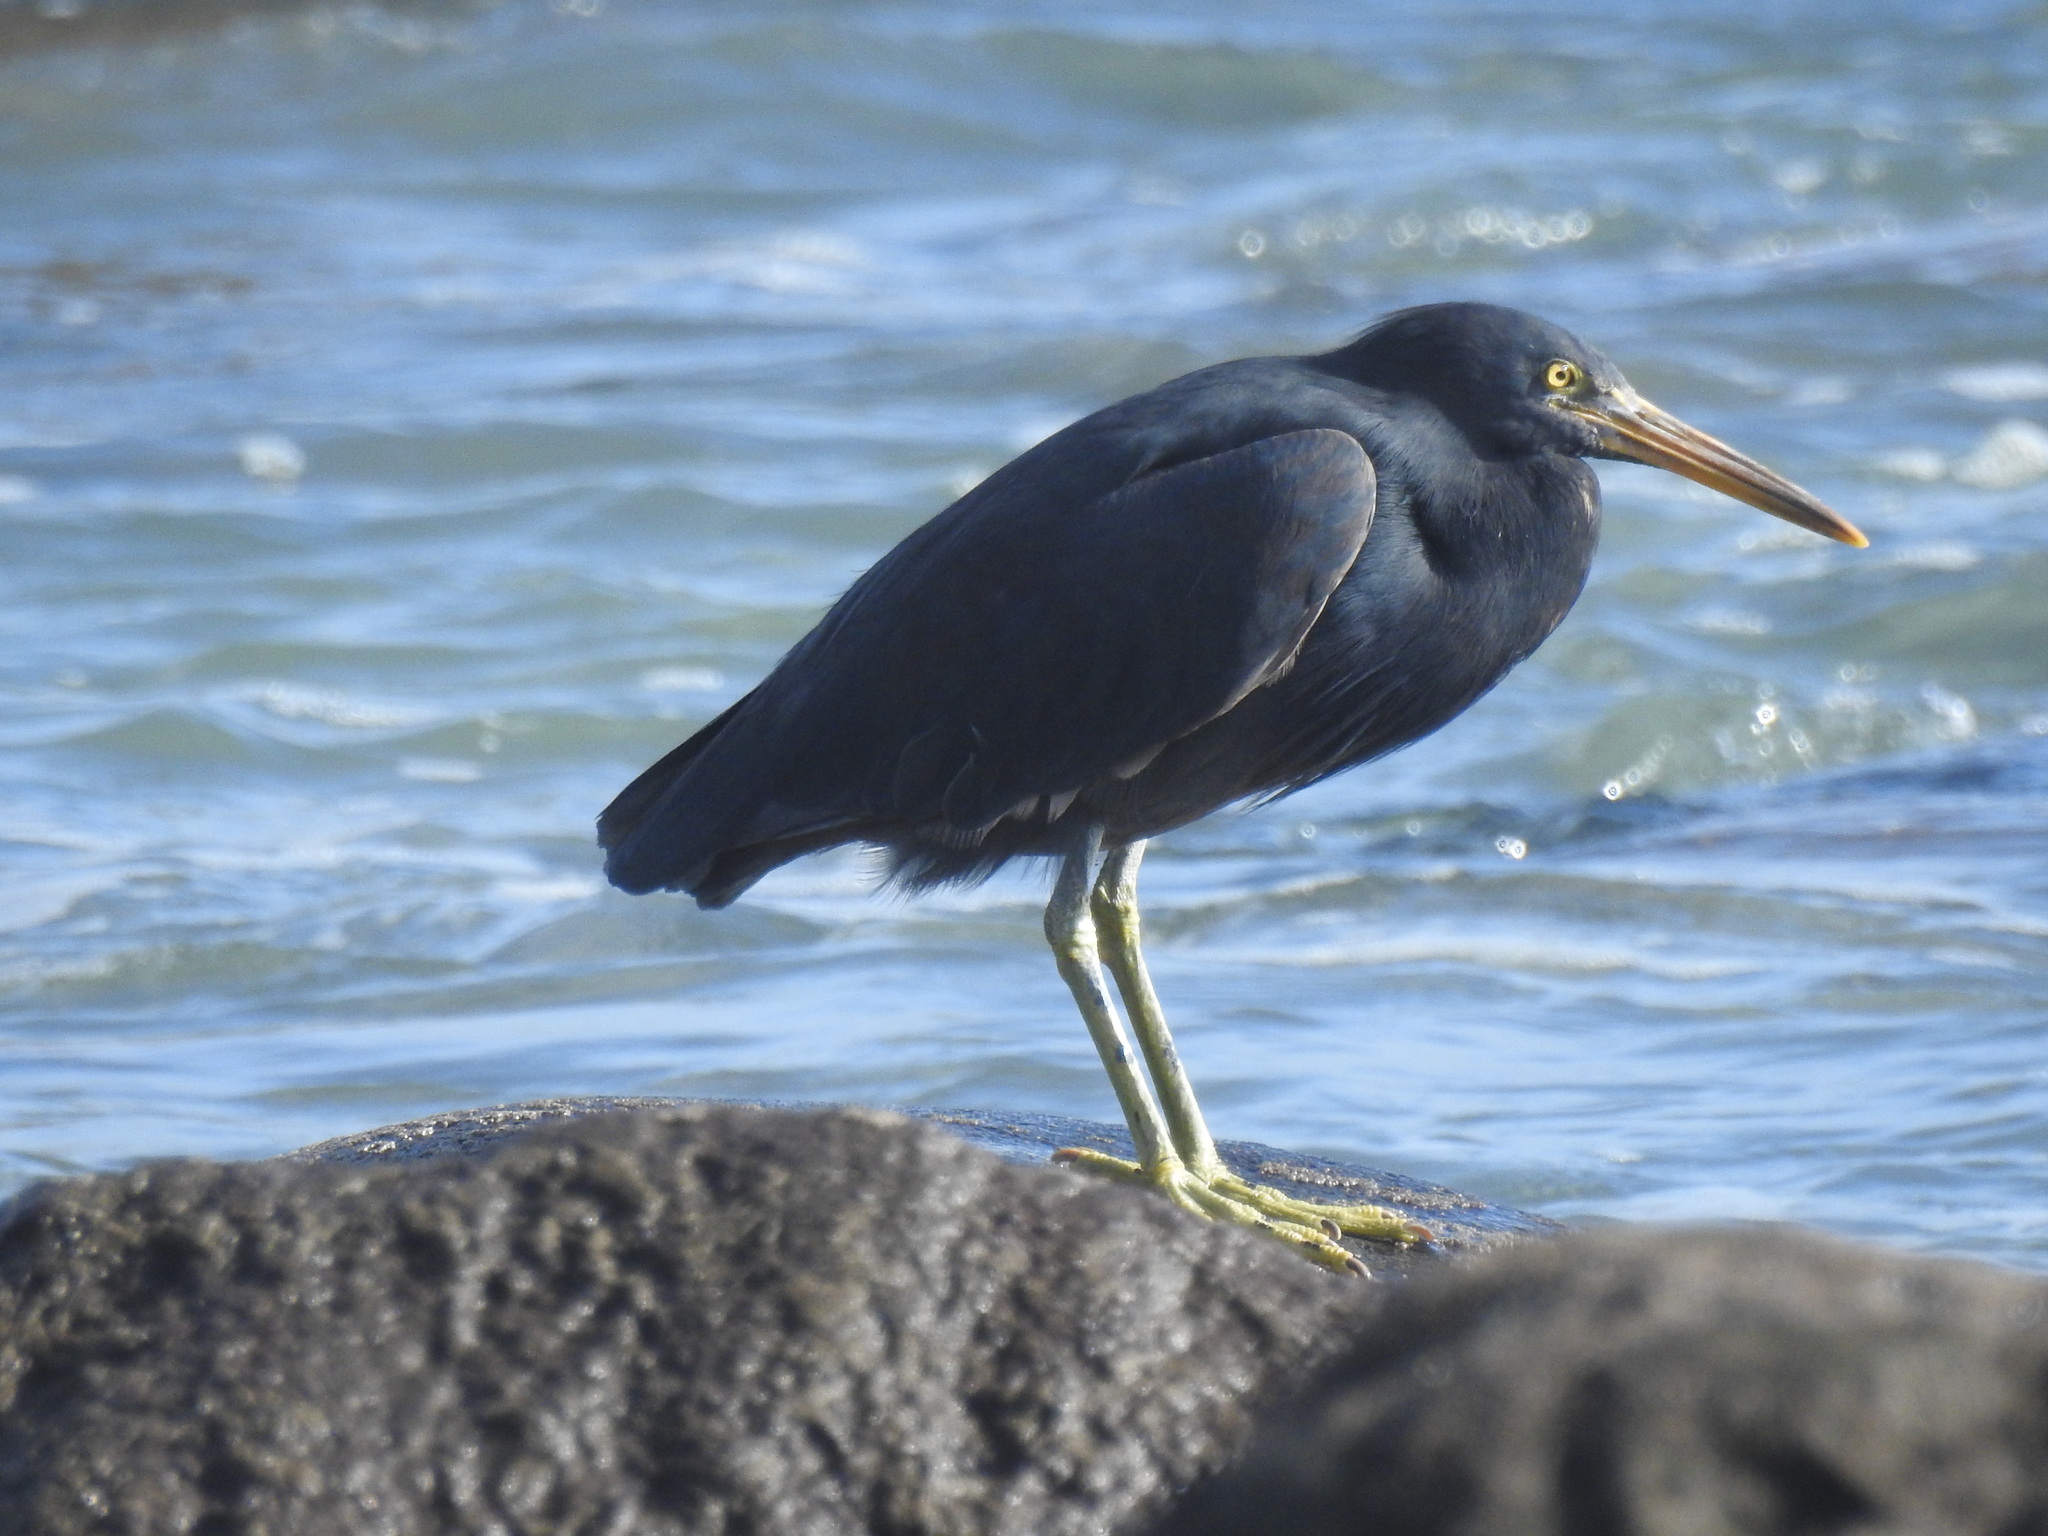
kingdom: Animalia
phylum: Chordata
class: Aves
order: Pelecaniformes
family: Ardeidae
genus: Egretta
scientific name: Egretta sacra
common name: Pacific reef heron
